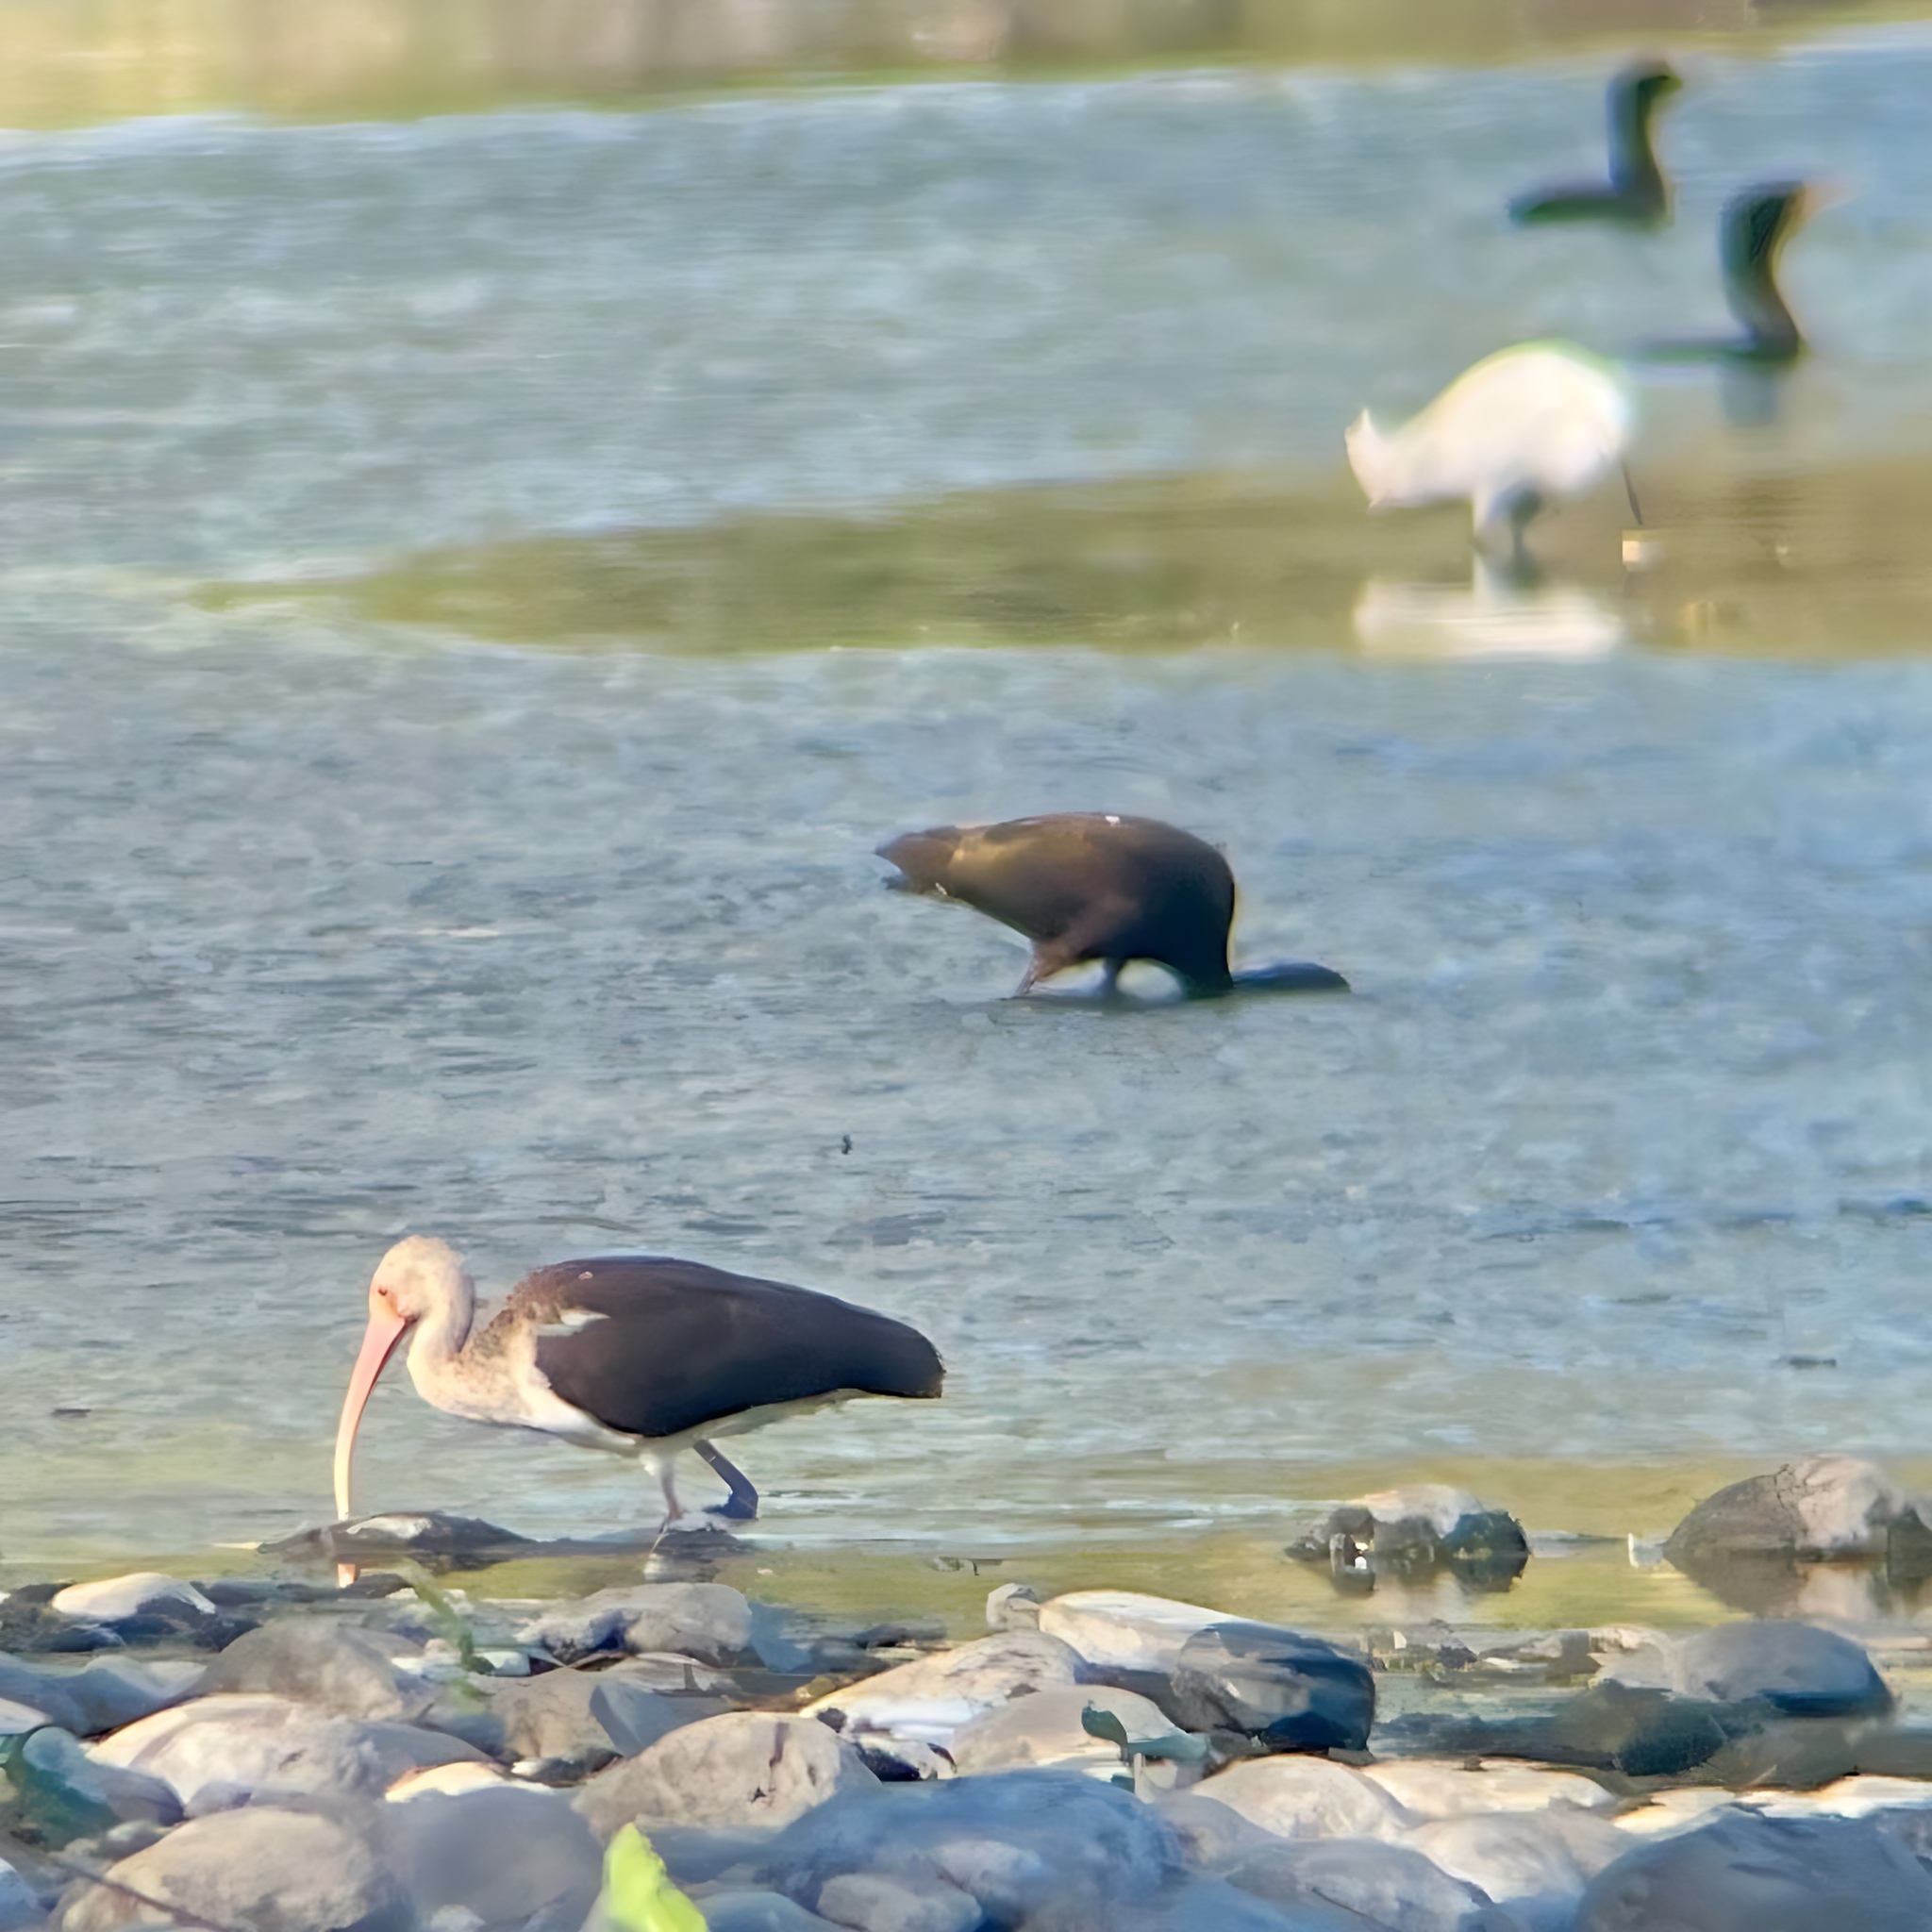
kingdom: Animalia
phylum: Chordata
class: Aves
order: Pelecaniformes
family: Threskiornithidae
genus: Eudocimus
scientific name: Eudocimus albus
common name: White ibis
